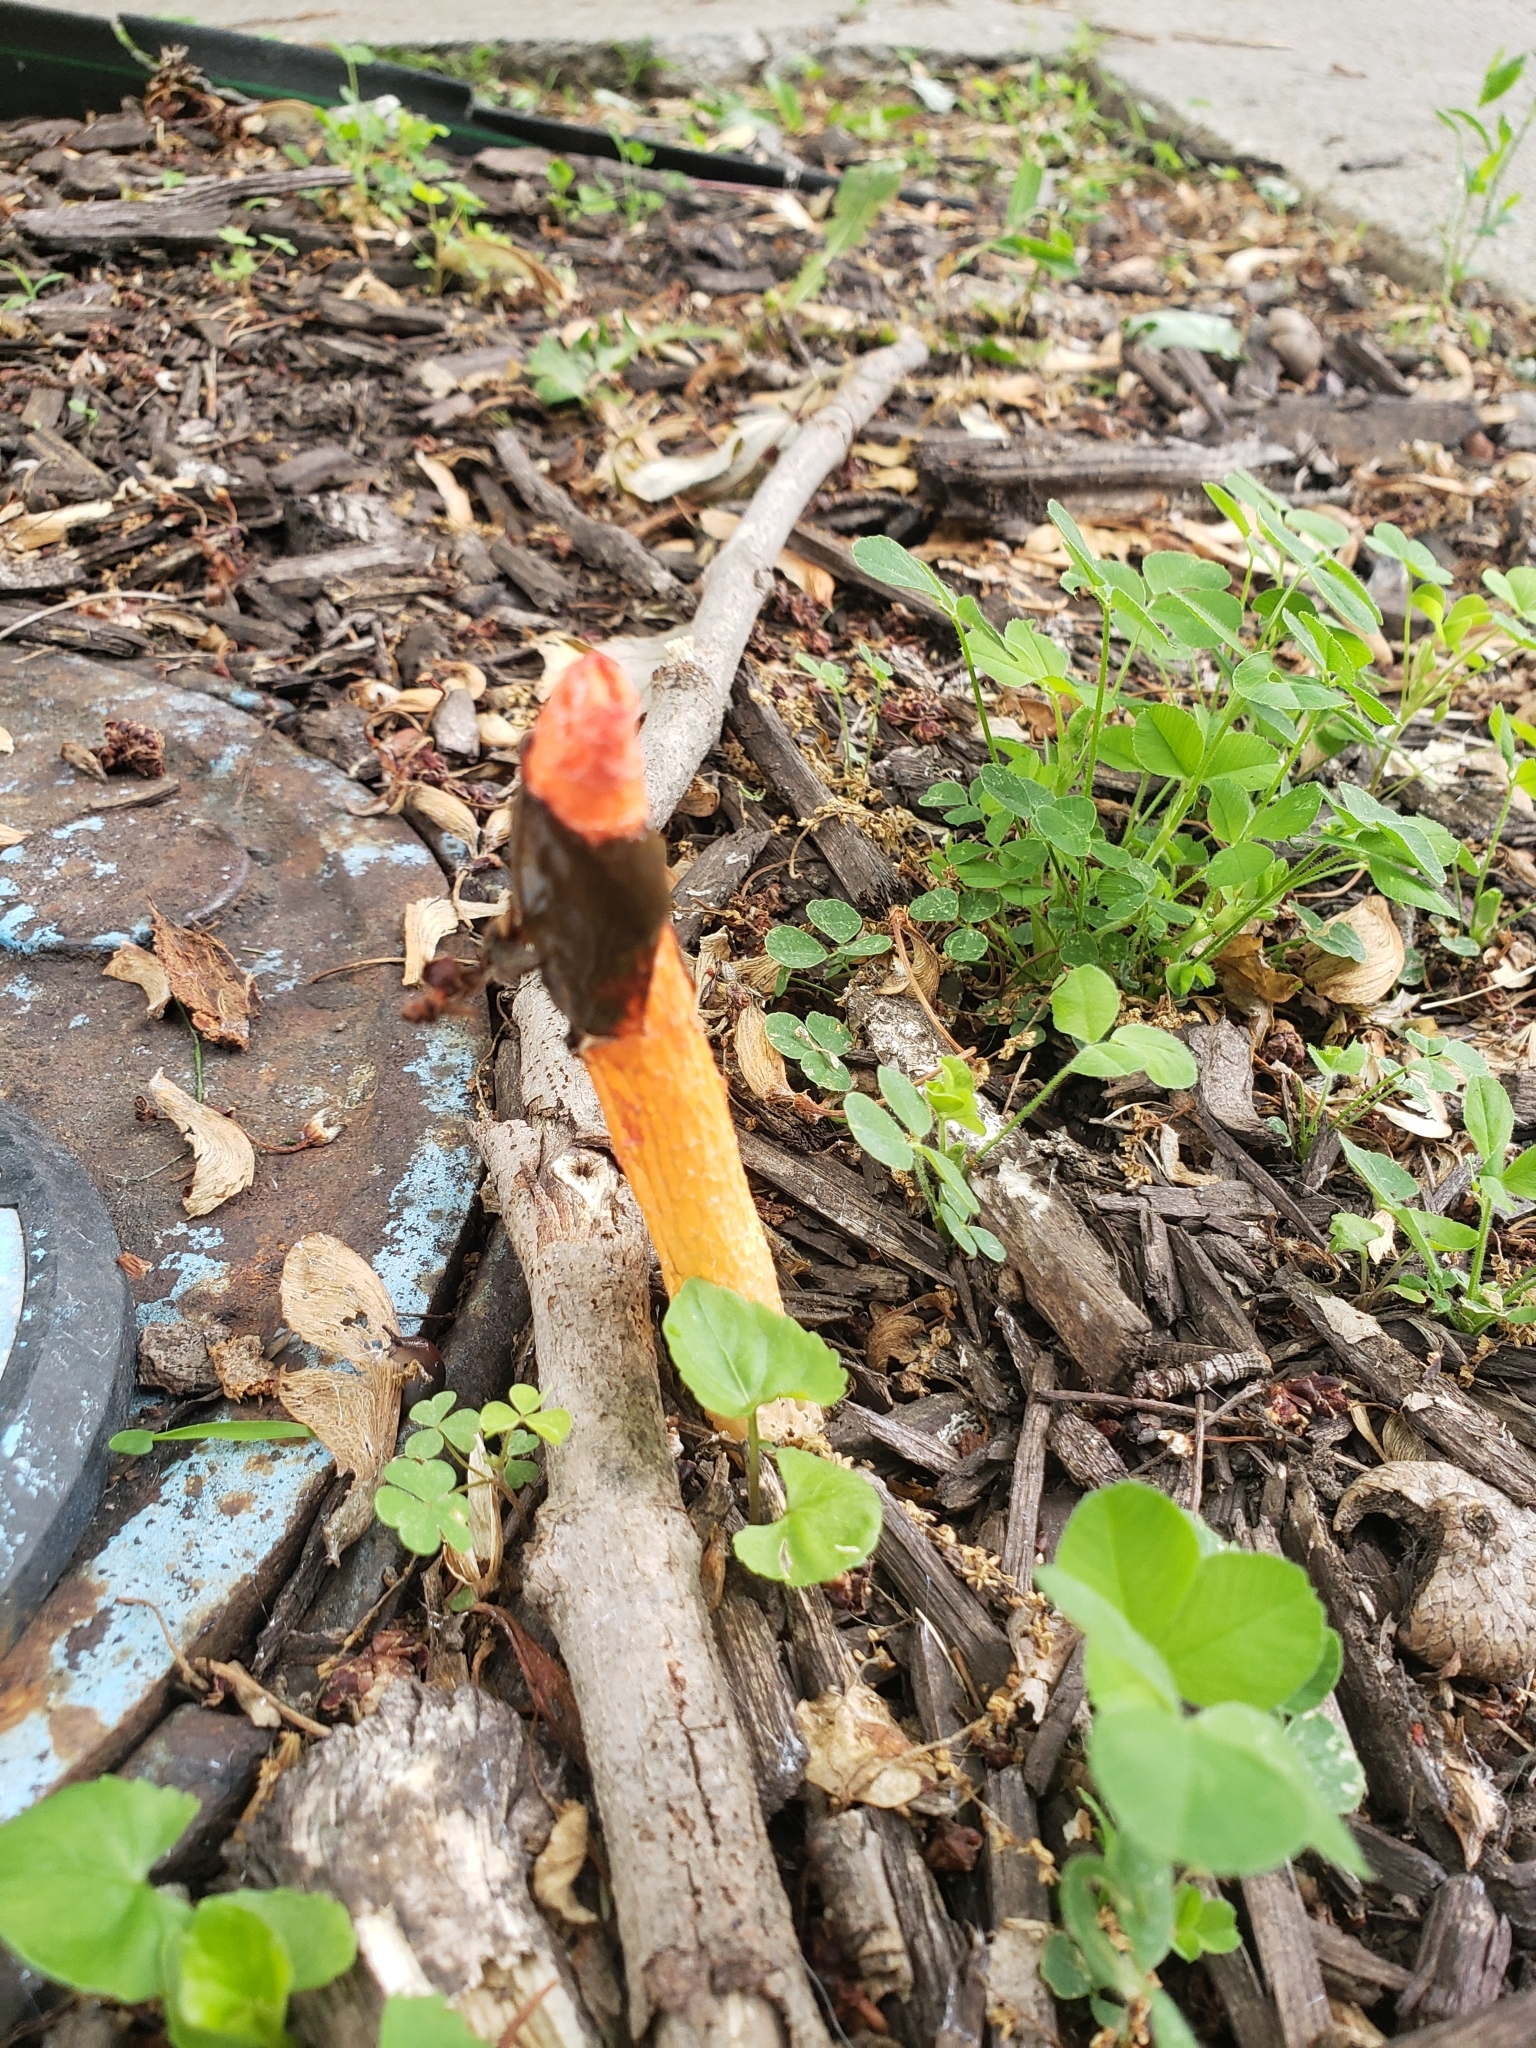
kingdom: Fungi
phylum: Basidiomycota
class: Agaricomycetes
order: Phallales
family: Phallaceae
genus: Phallus
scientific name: Phallus rugulosus
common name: Wrinkly stinkhorn
